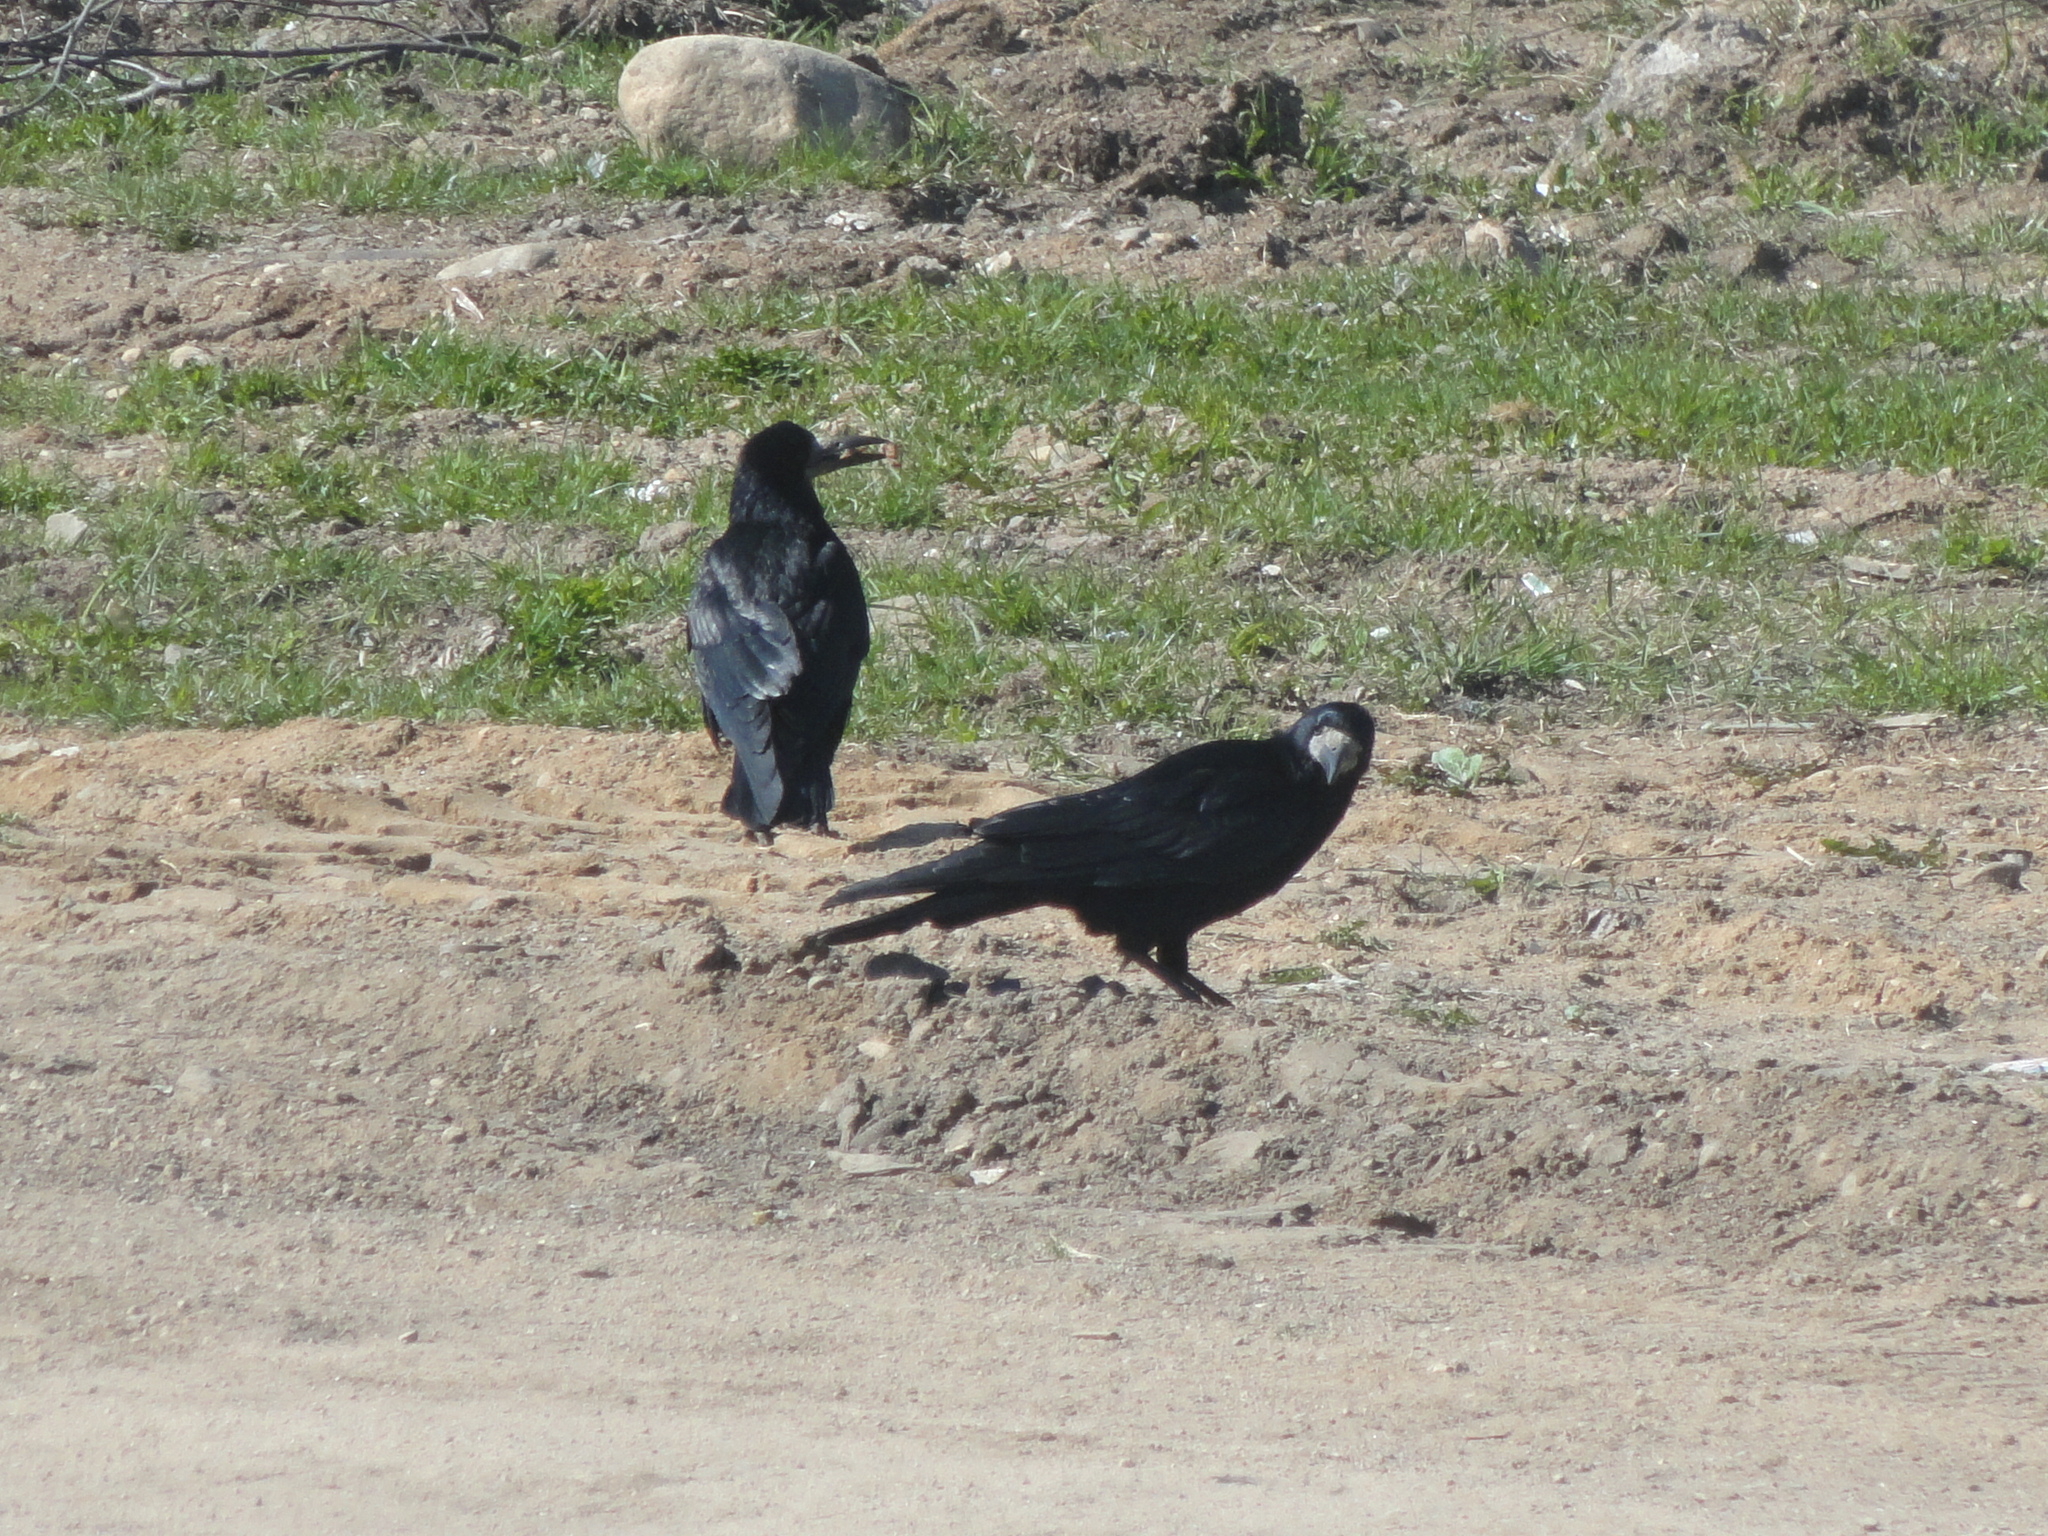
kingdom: Animalia
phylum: Chordata
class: Aves
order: Passeriformes
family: Corvidae
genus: Corvus
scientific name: Corvus frugilegus
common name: Rook
